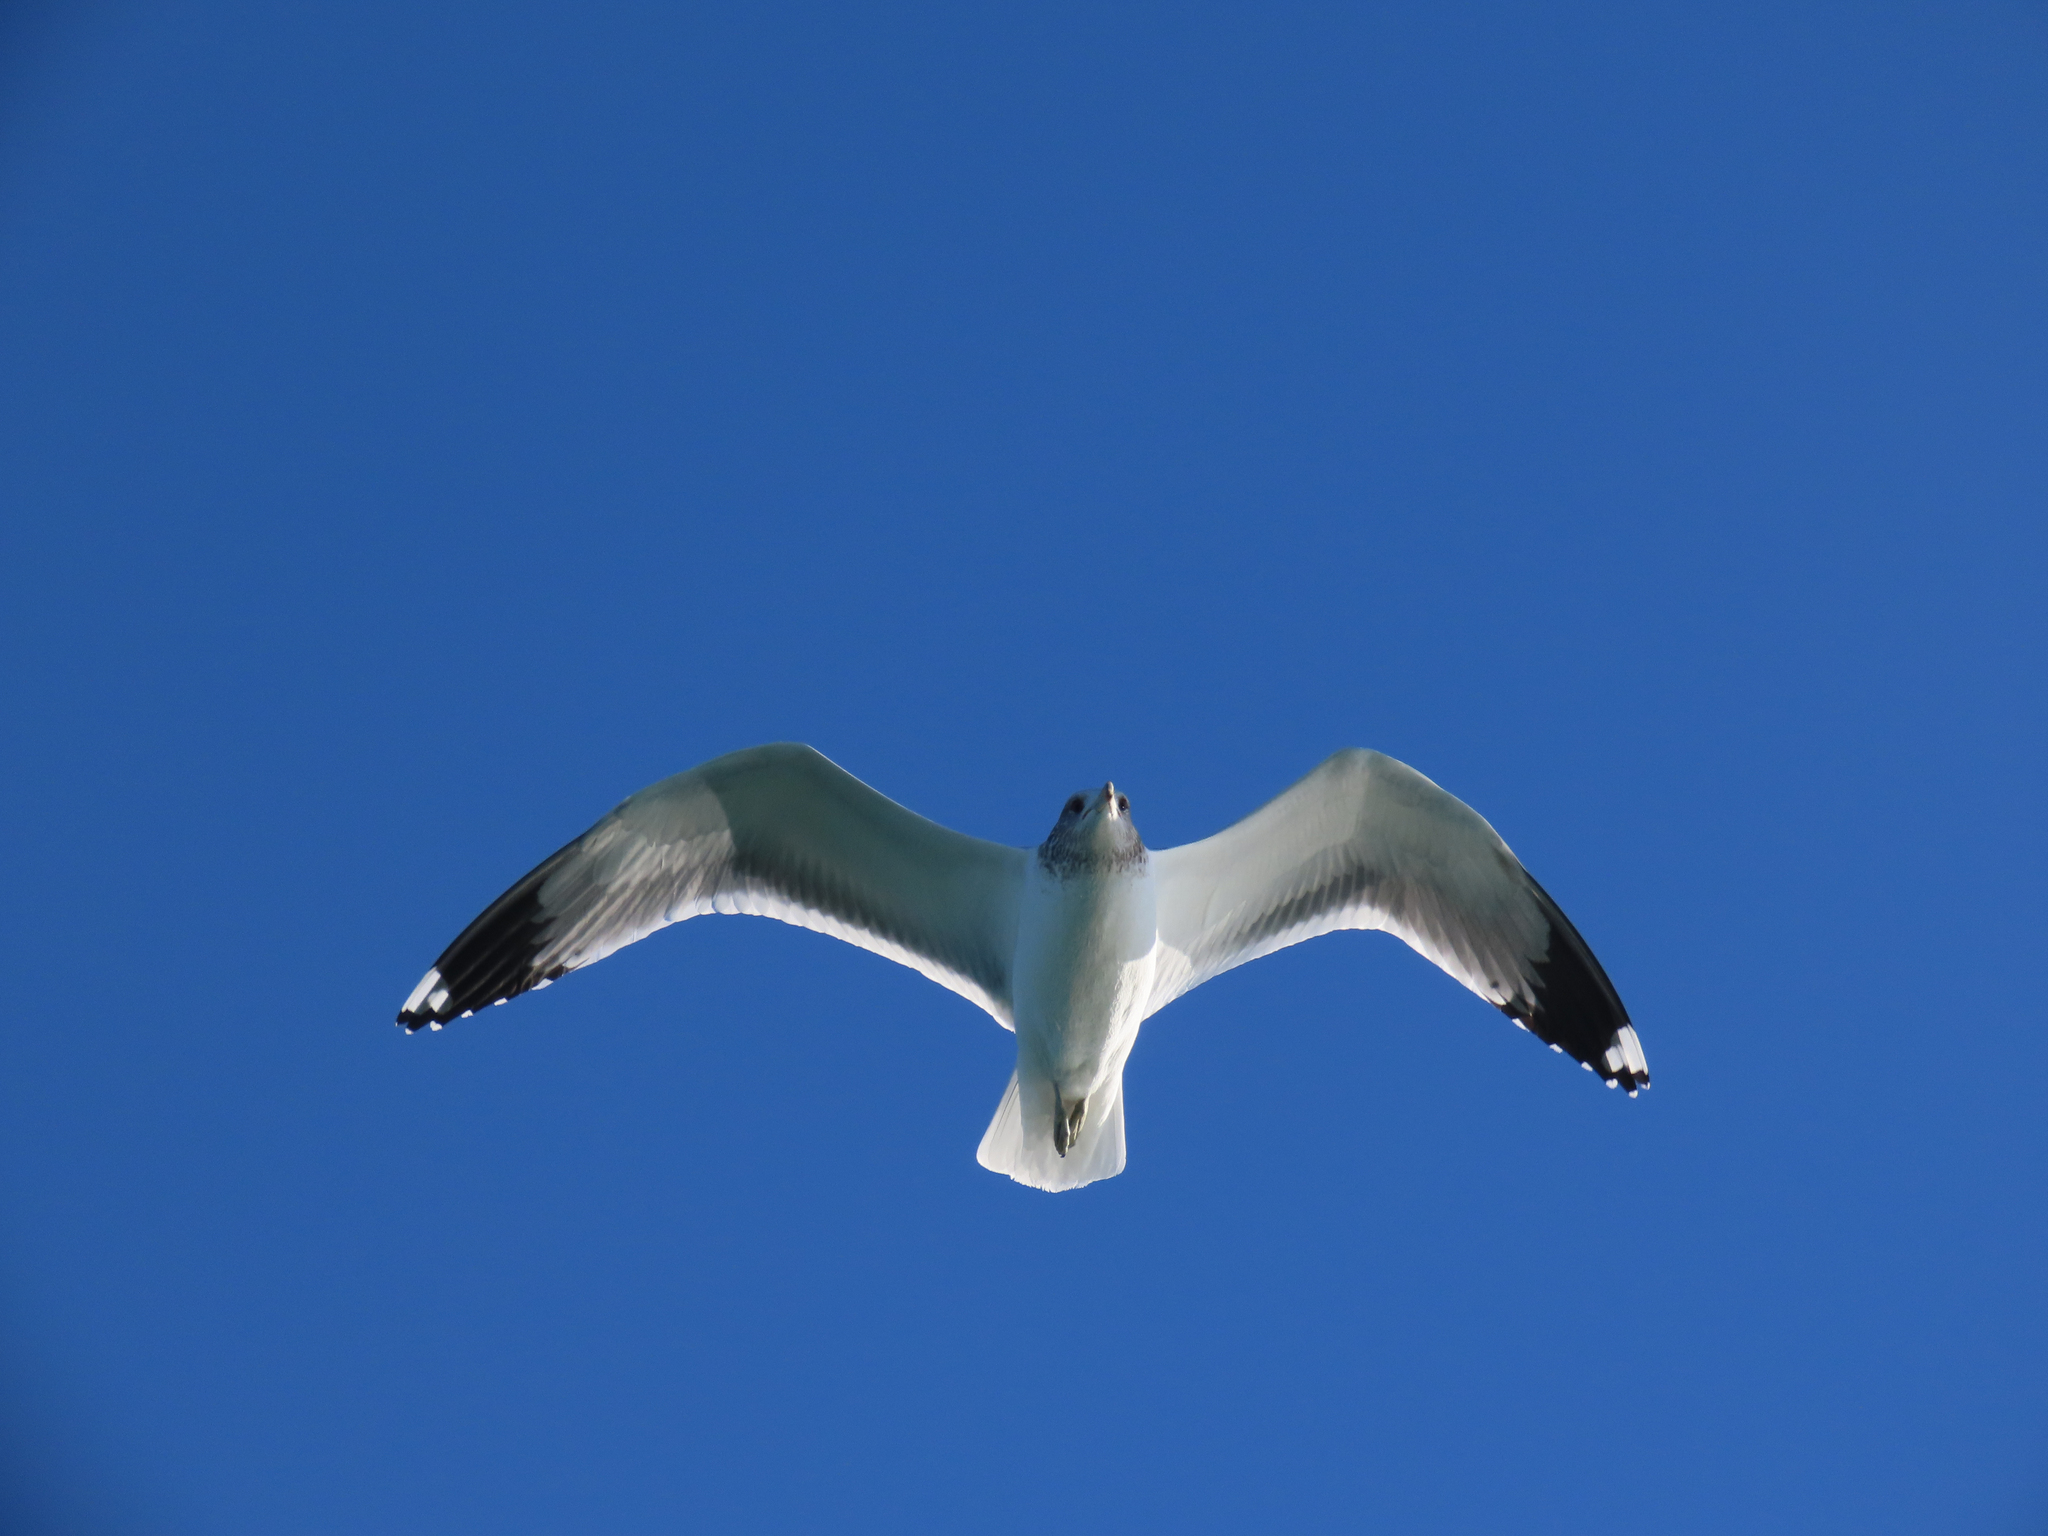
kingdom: Animalia
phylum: Chordata
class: Aves
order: Charadriiformes
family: Laridae
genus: Larus
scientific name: Larus californicus
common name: California gull
